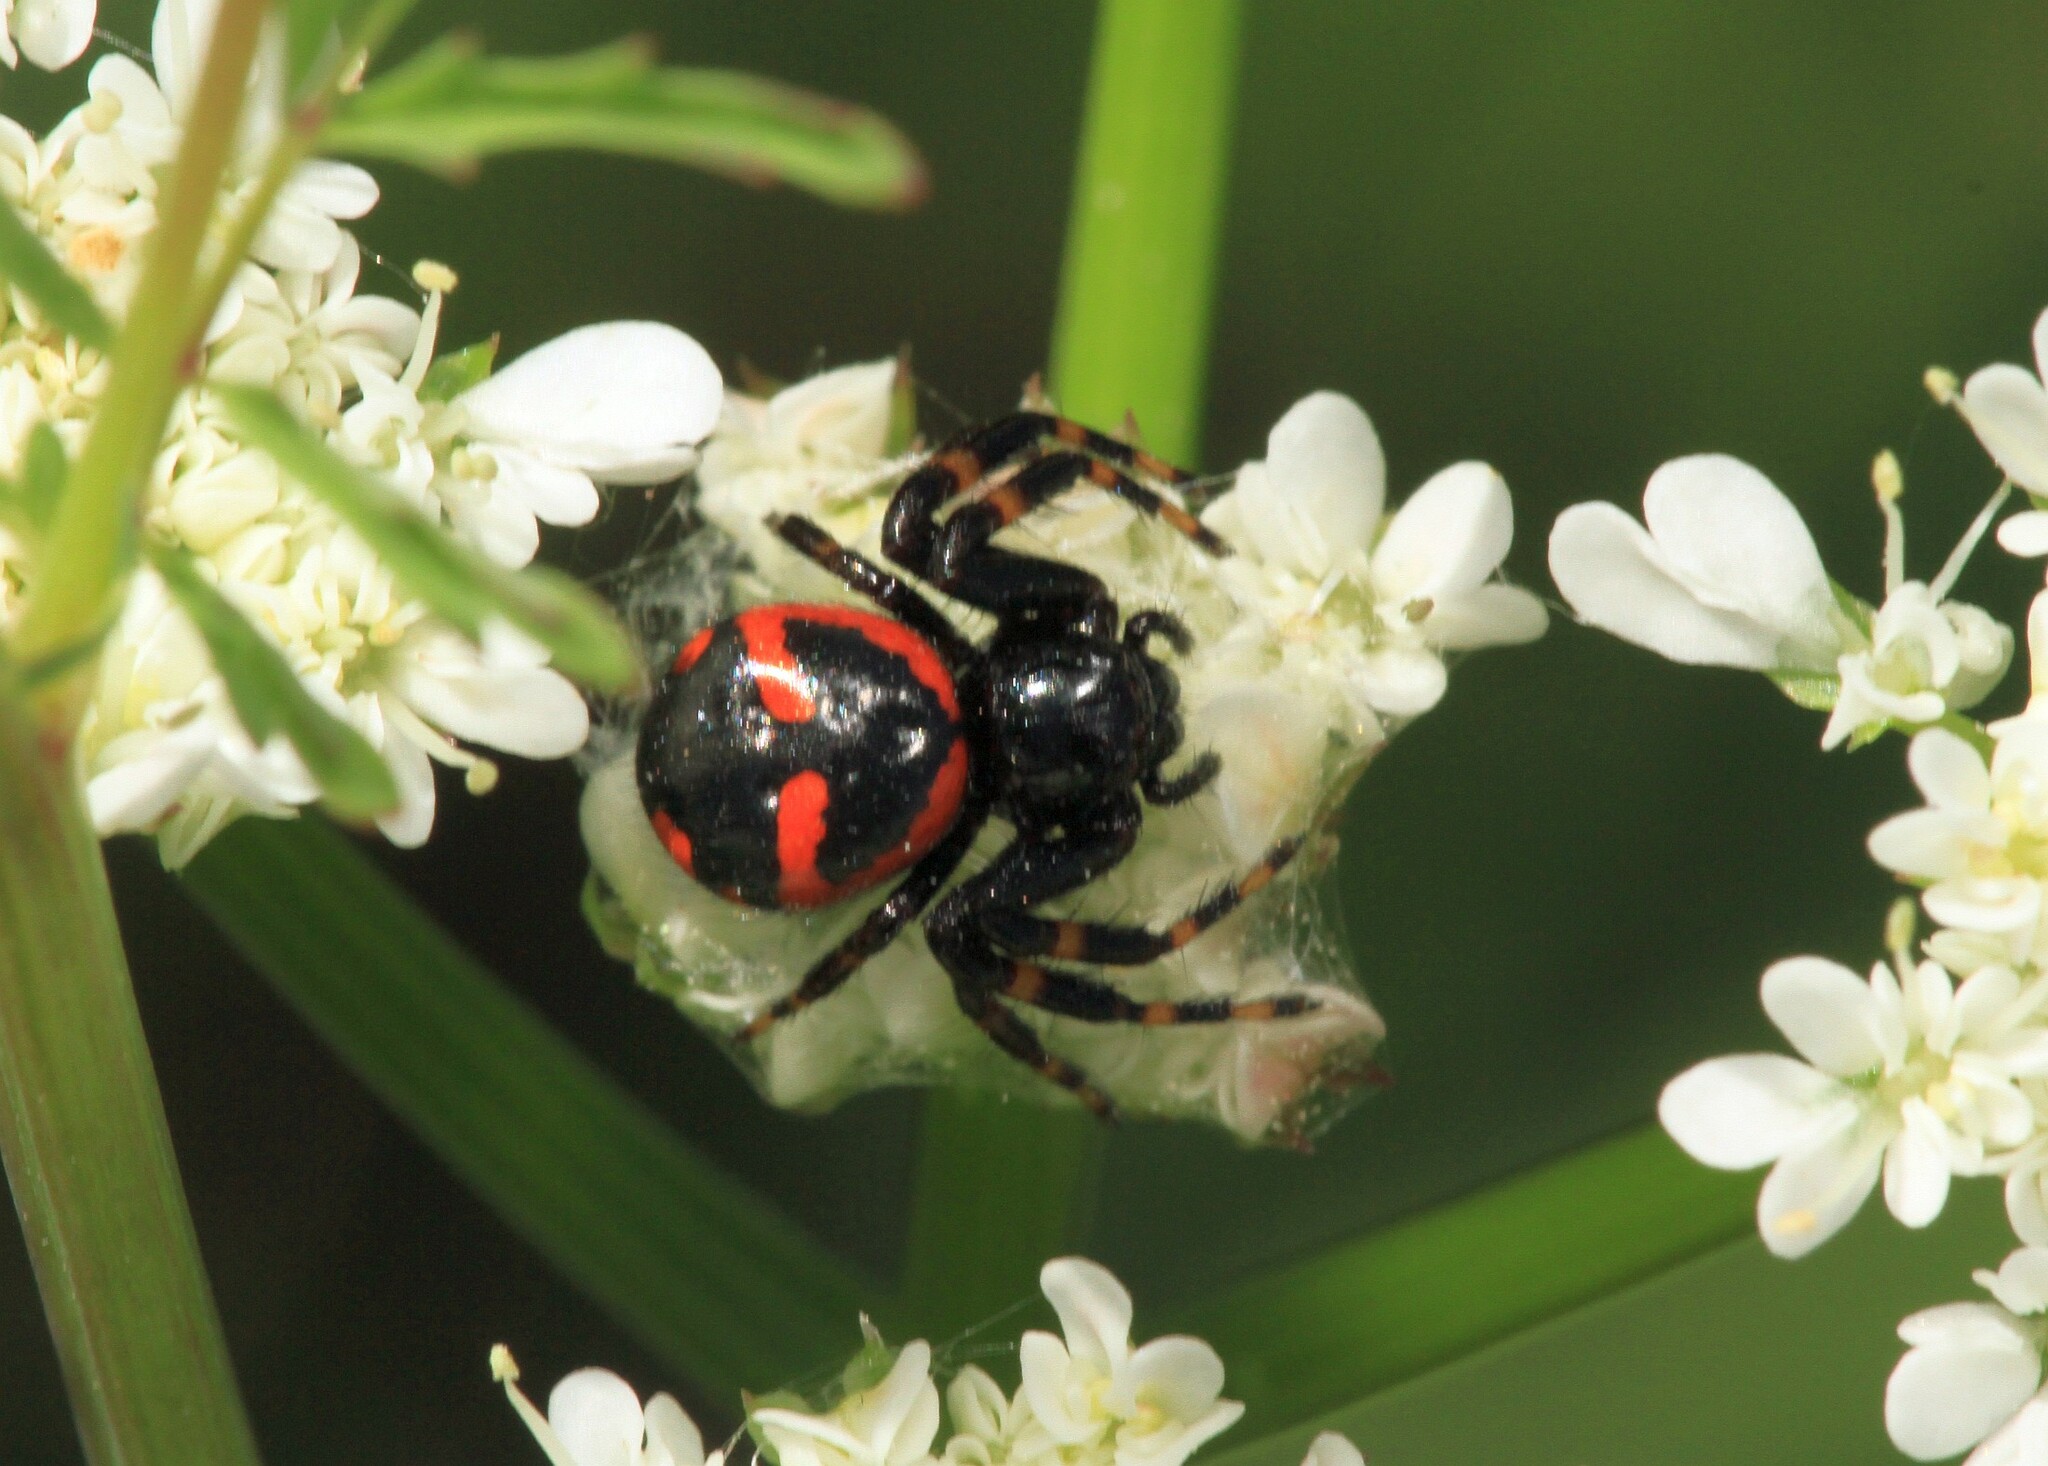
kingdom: Animalia
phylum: Arthropoda
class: Arachnida
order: Araneae
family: Thomisidae
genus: Synema
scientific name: Synema globosum
